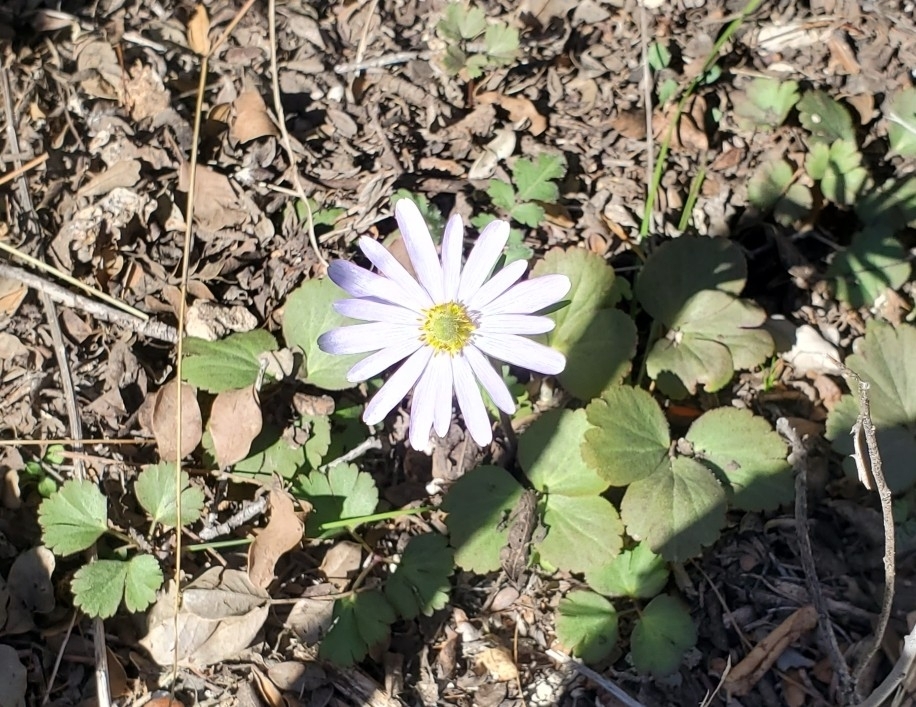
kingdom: Plantae
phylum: Tracheophyta
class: Magnoliopsida
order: Ranunculales
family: Ranunculaceae
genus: Anemone
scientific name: Anemone berlandieri
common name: Ten-petal anemone
